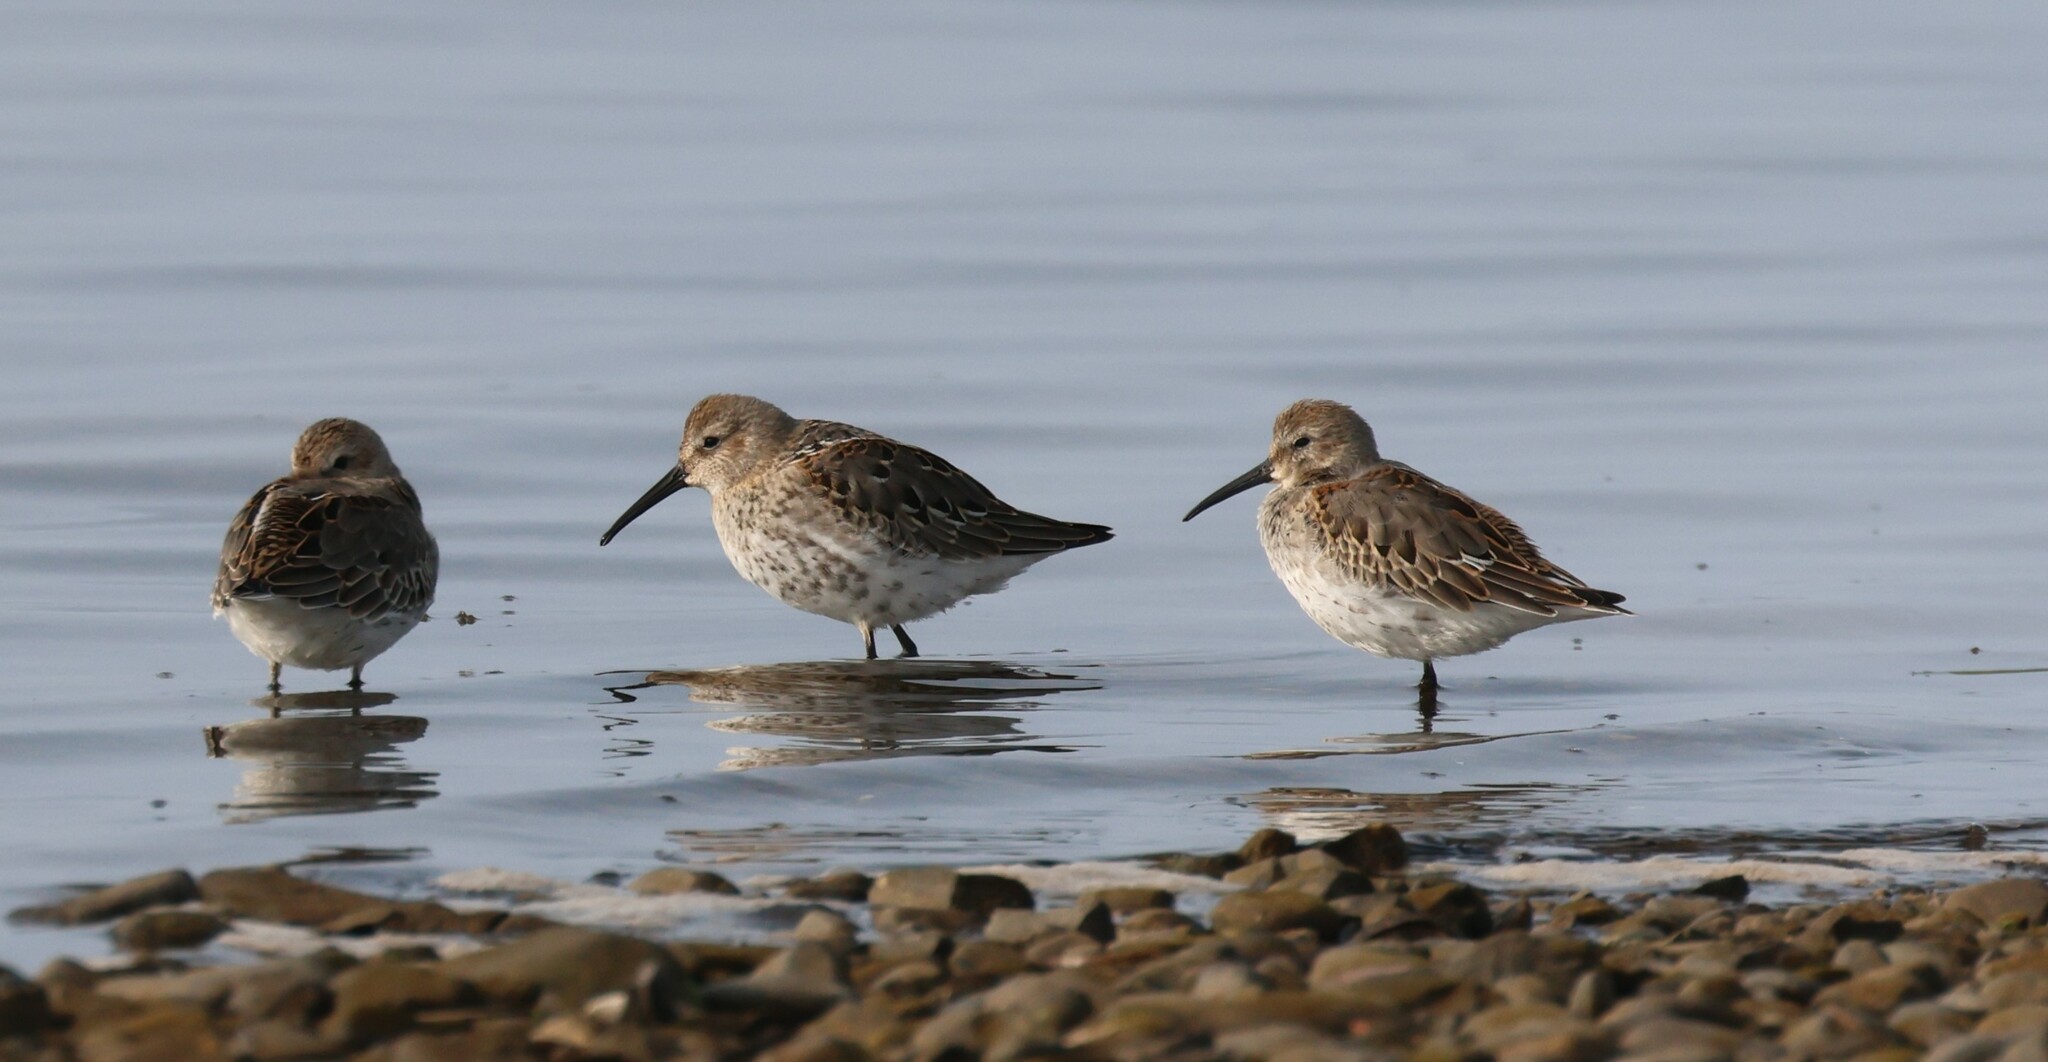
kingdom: Animalia
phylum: Chordata
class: Aves
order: Charadriiformes
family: Scolopacidae
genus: Calidris
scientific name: Calidris alpina
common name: Dunlin
